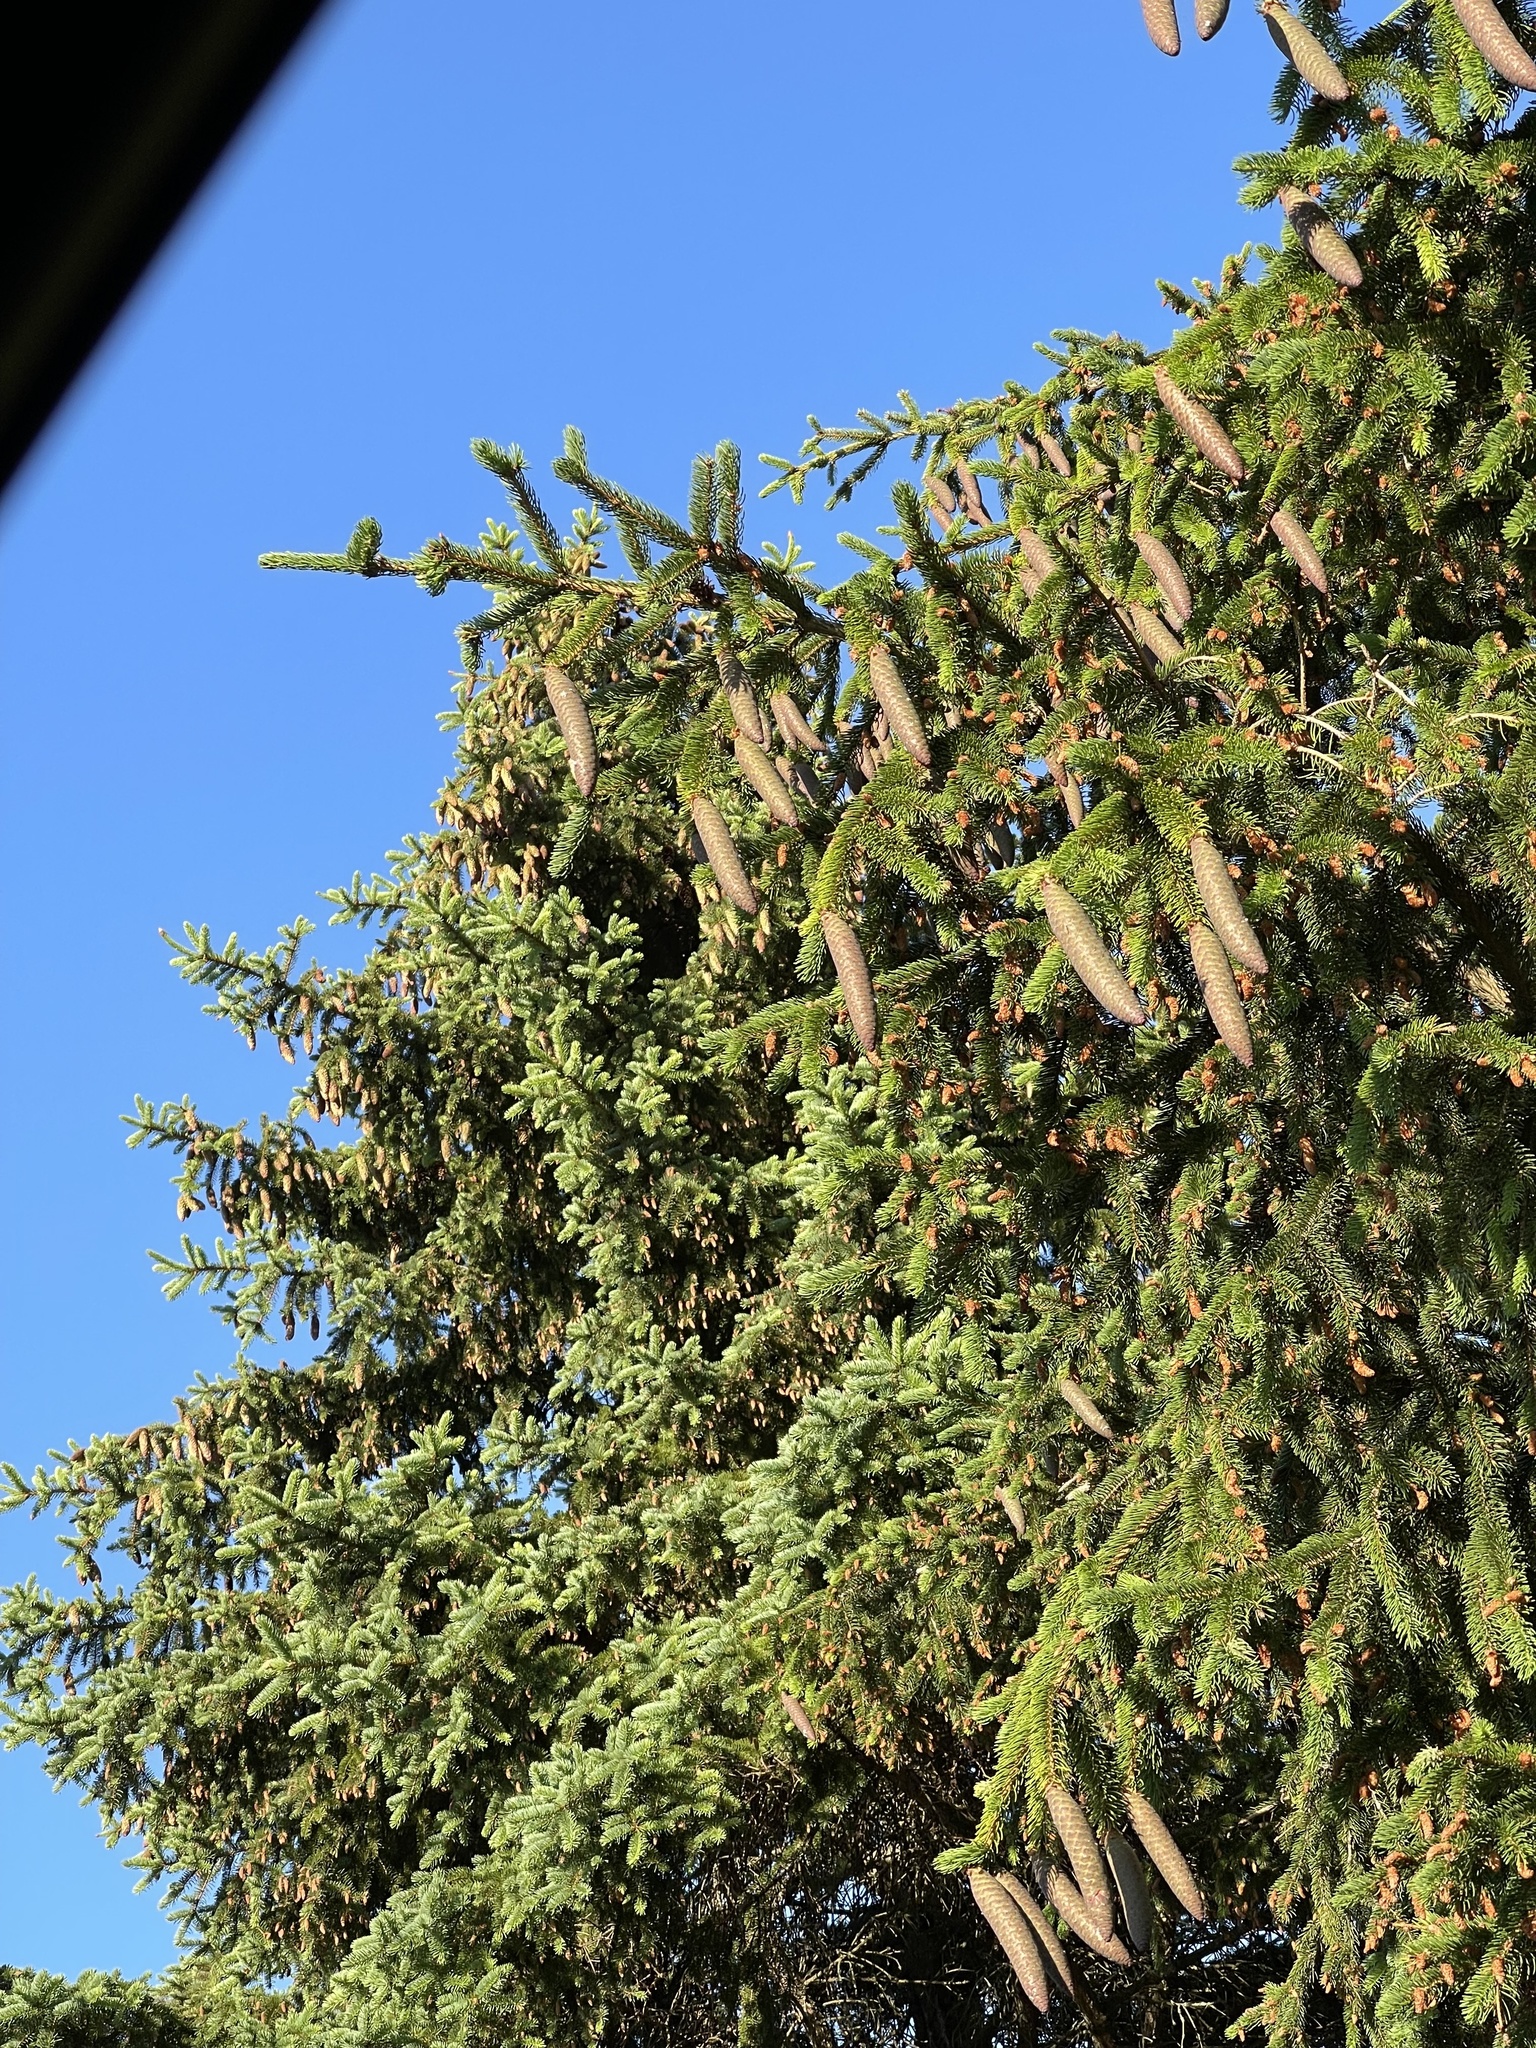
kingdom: Plantae
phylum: Tracheophyta
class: Pinopsida
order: Pinales
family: Pinaceae
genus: Picea
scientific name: Picea abies
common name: Norway spruce
